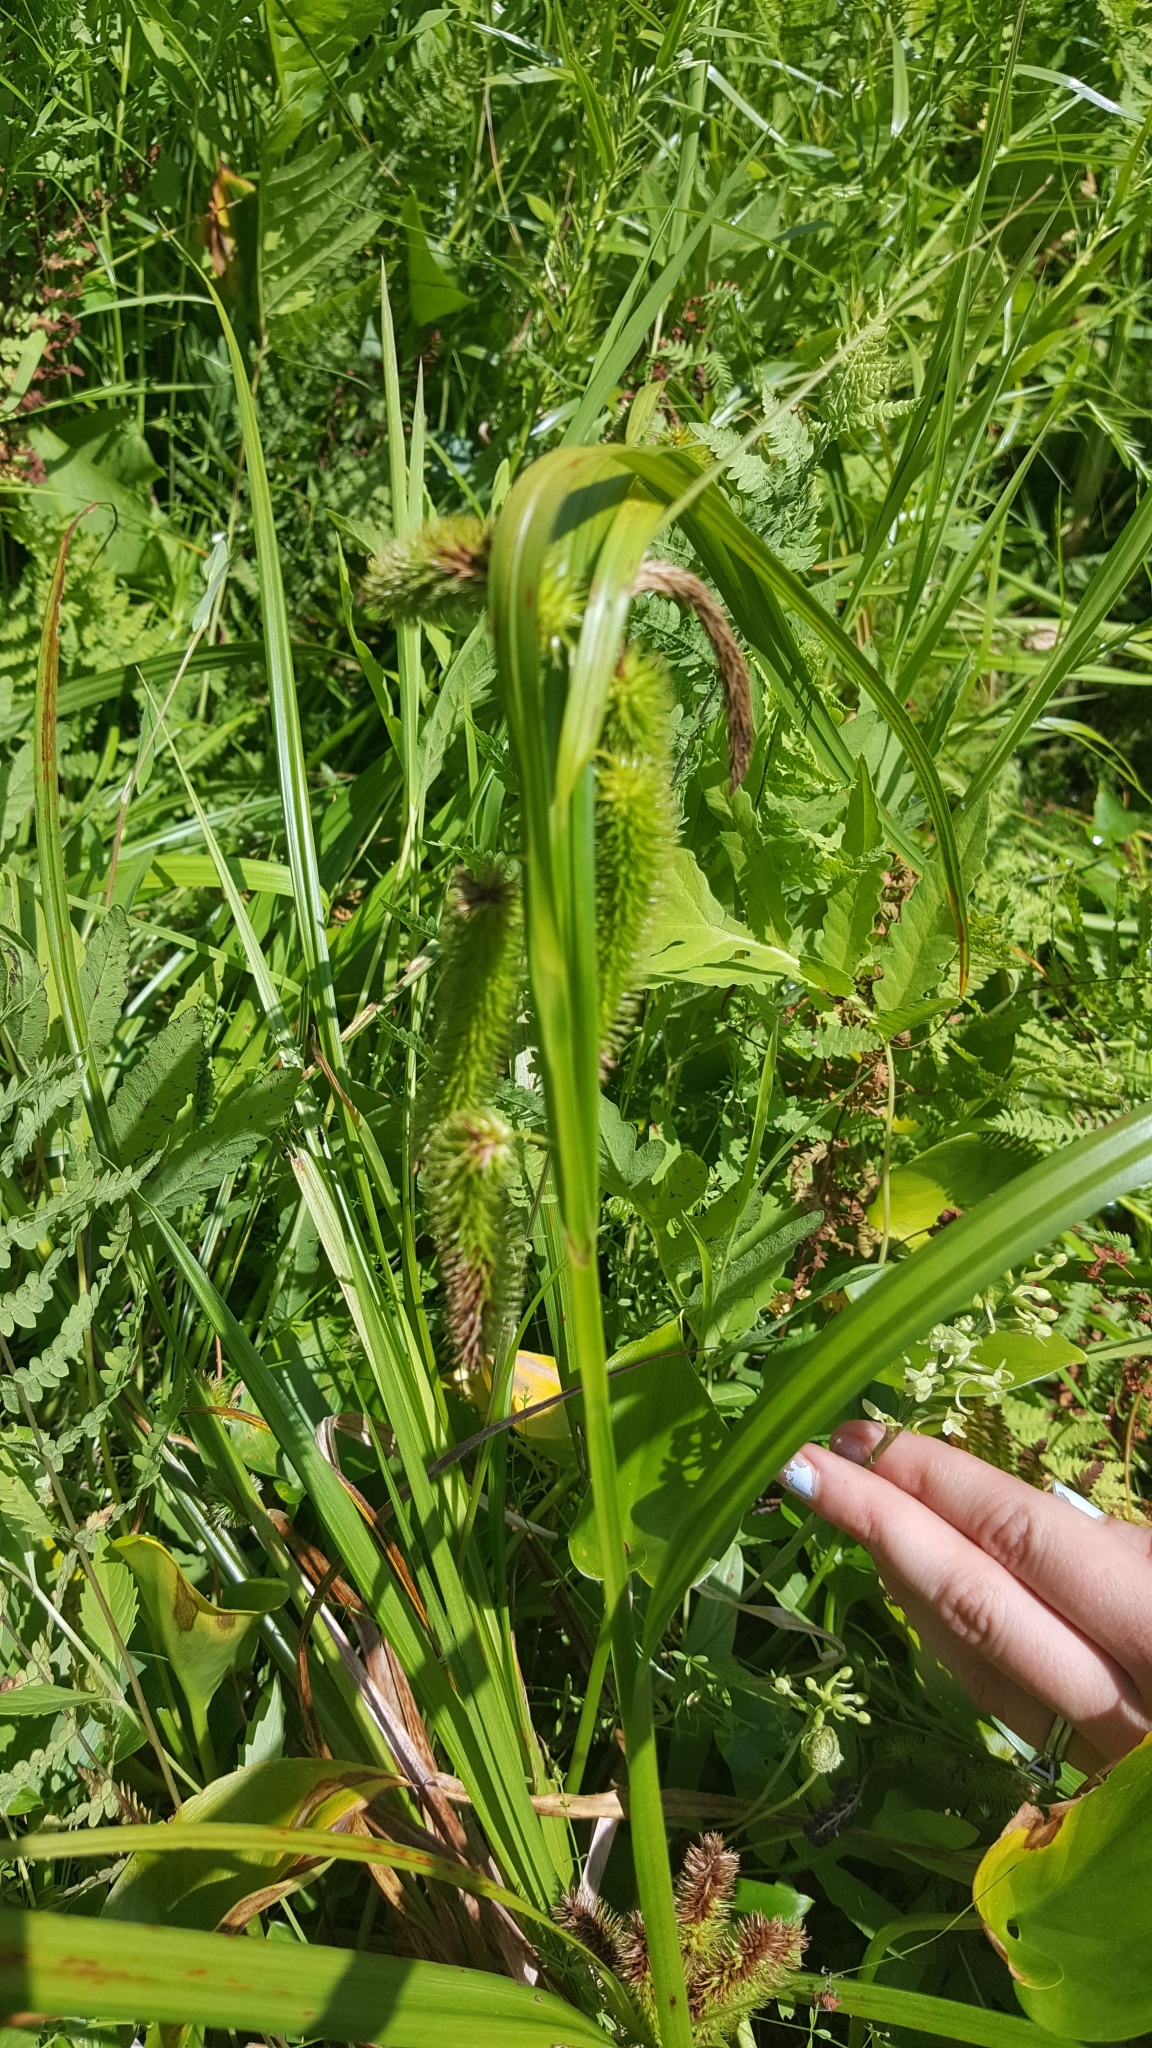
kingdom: Plantae
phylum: Tracheophyta
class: Polypodiopsida
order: Polypodiales
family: Onocleaceae
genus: Onoclea
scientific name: Onoclea sensibilis
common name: Sensitive fern
